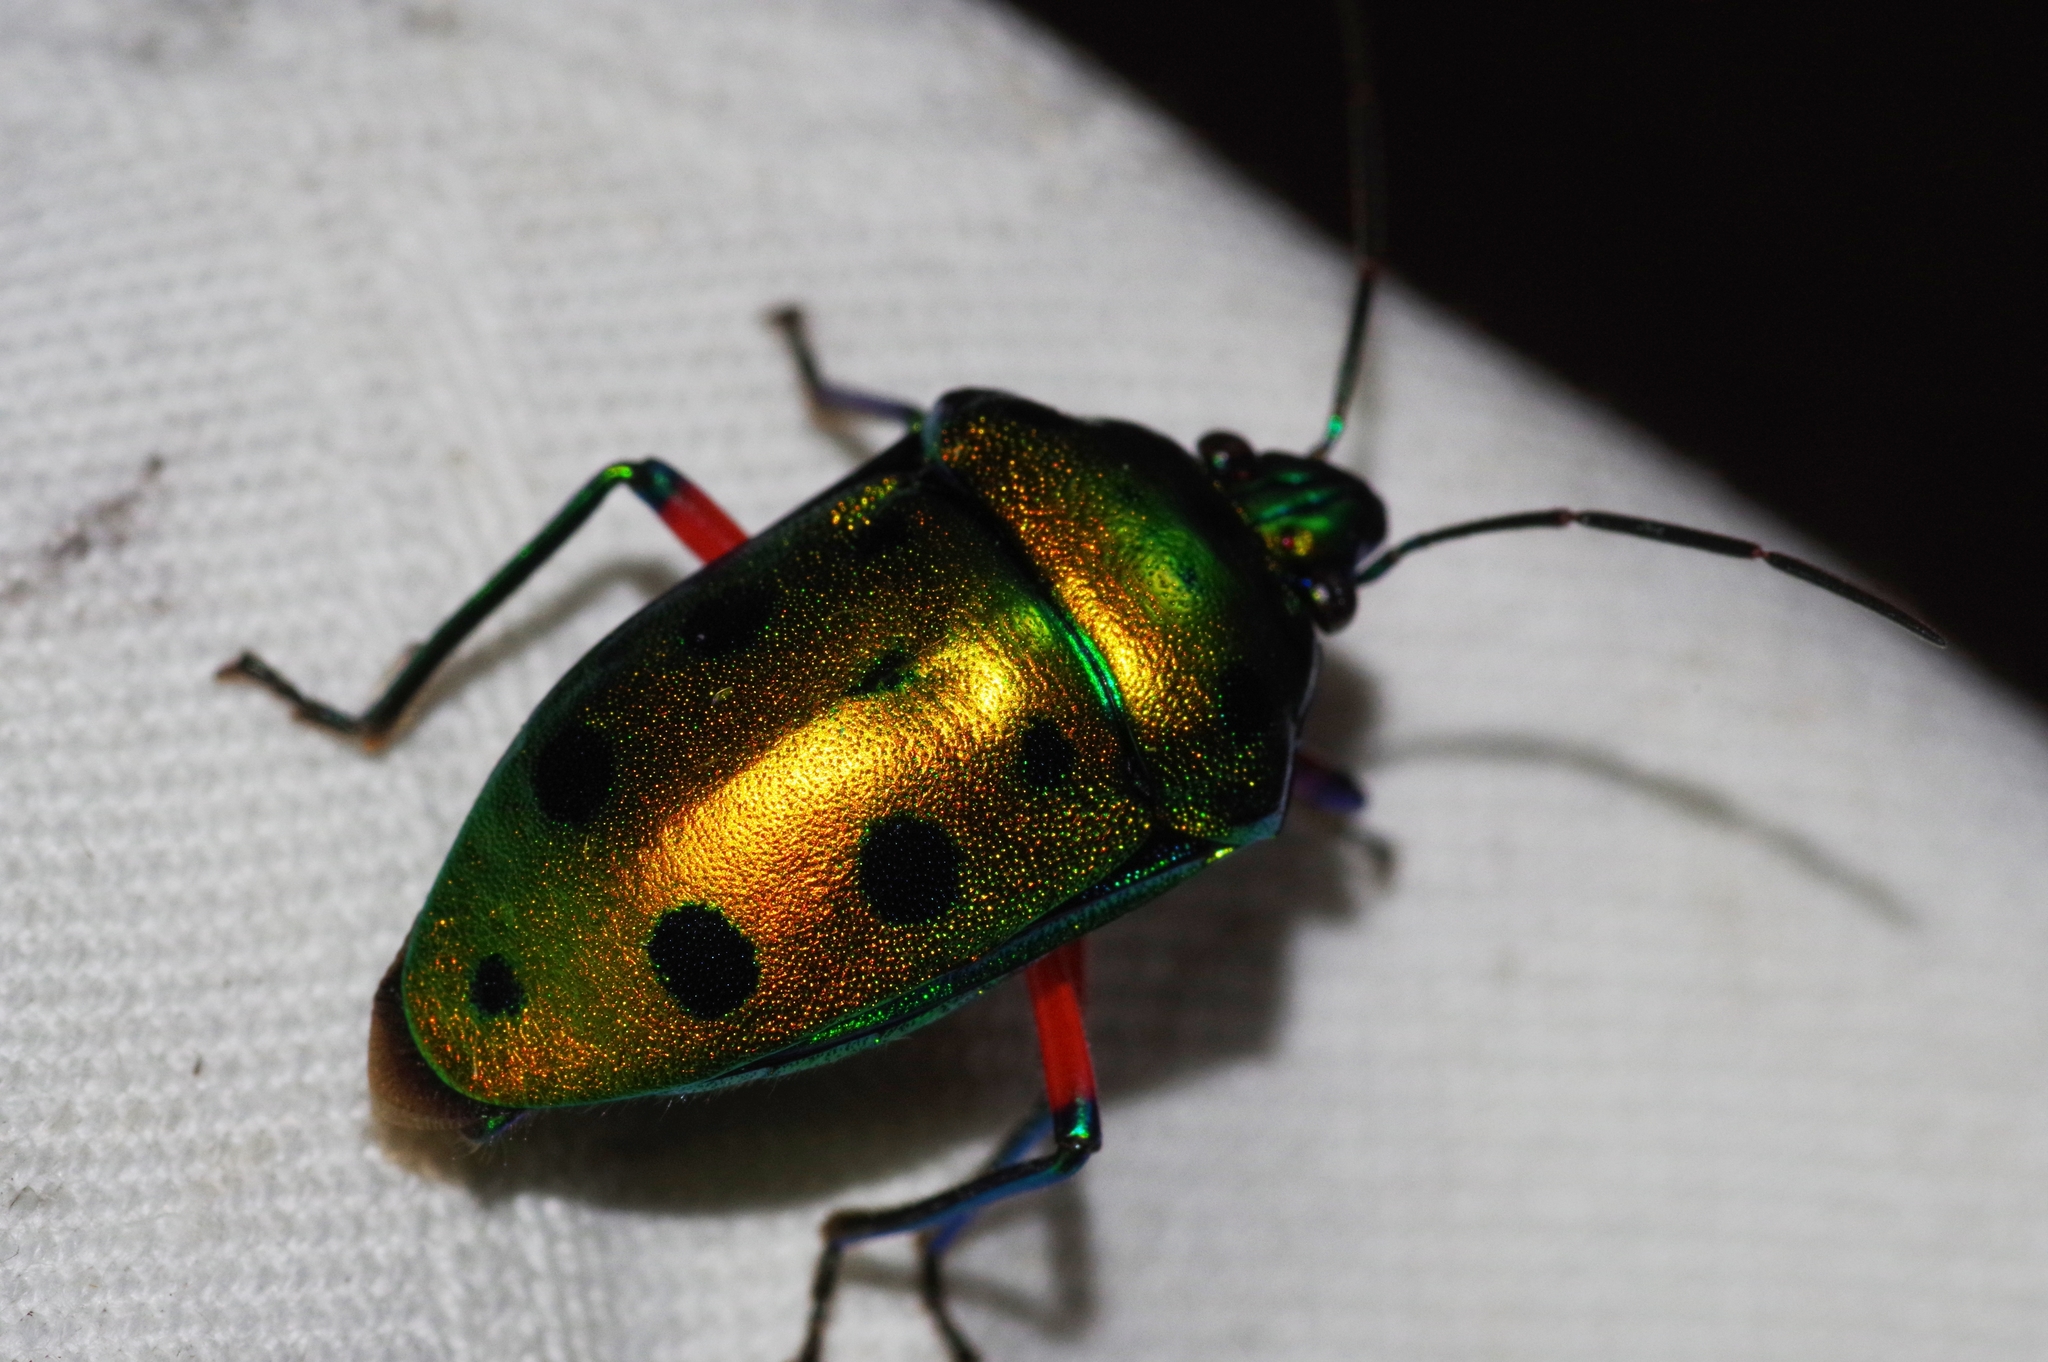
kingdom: Animalia
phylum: Arthropoda
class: Insecta
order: Hemiptera
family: Scutelleridae
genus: Calliphara
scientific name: Calliphara excellens
